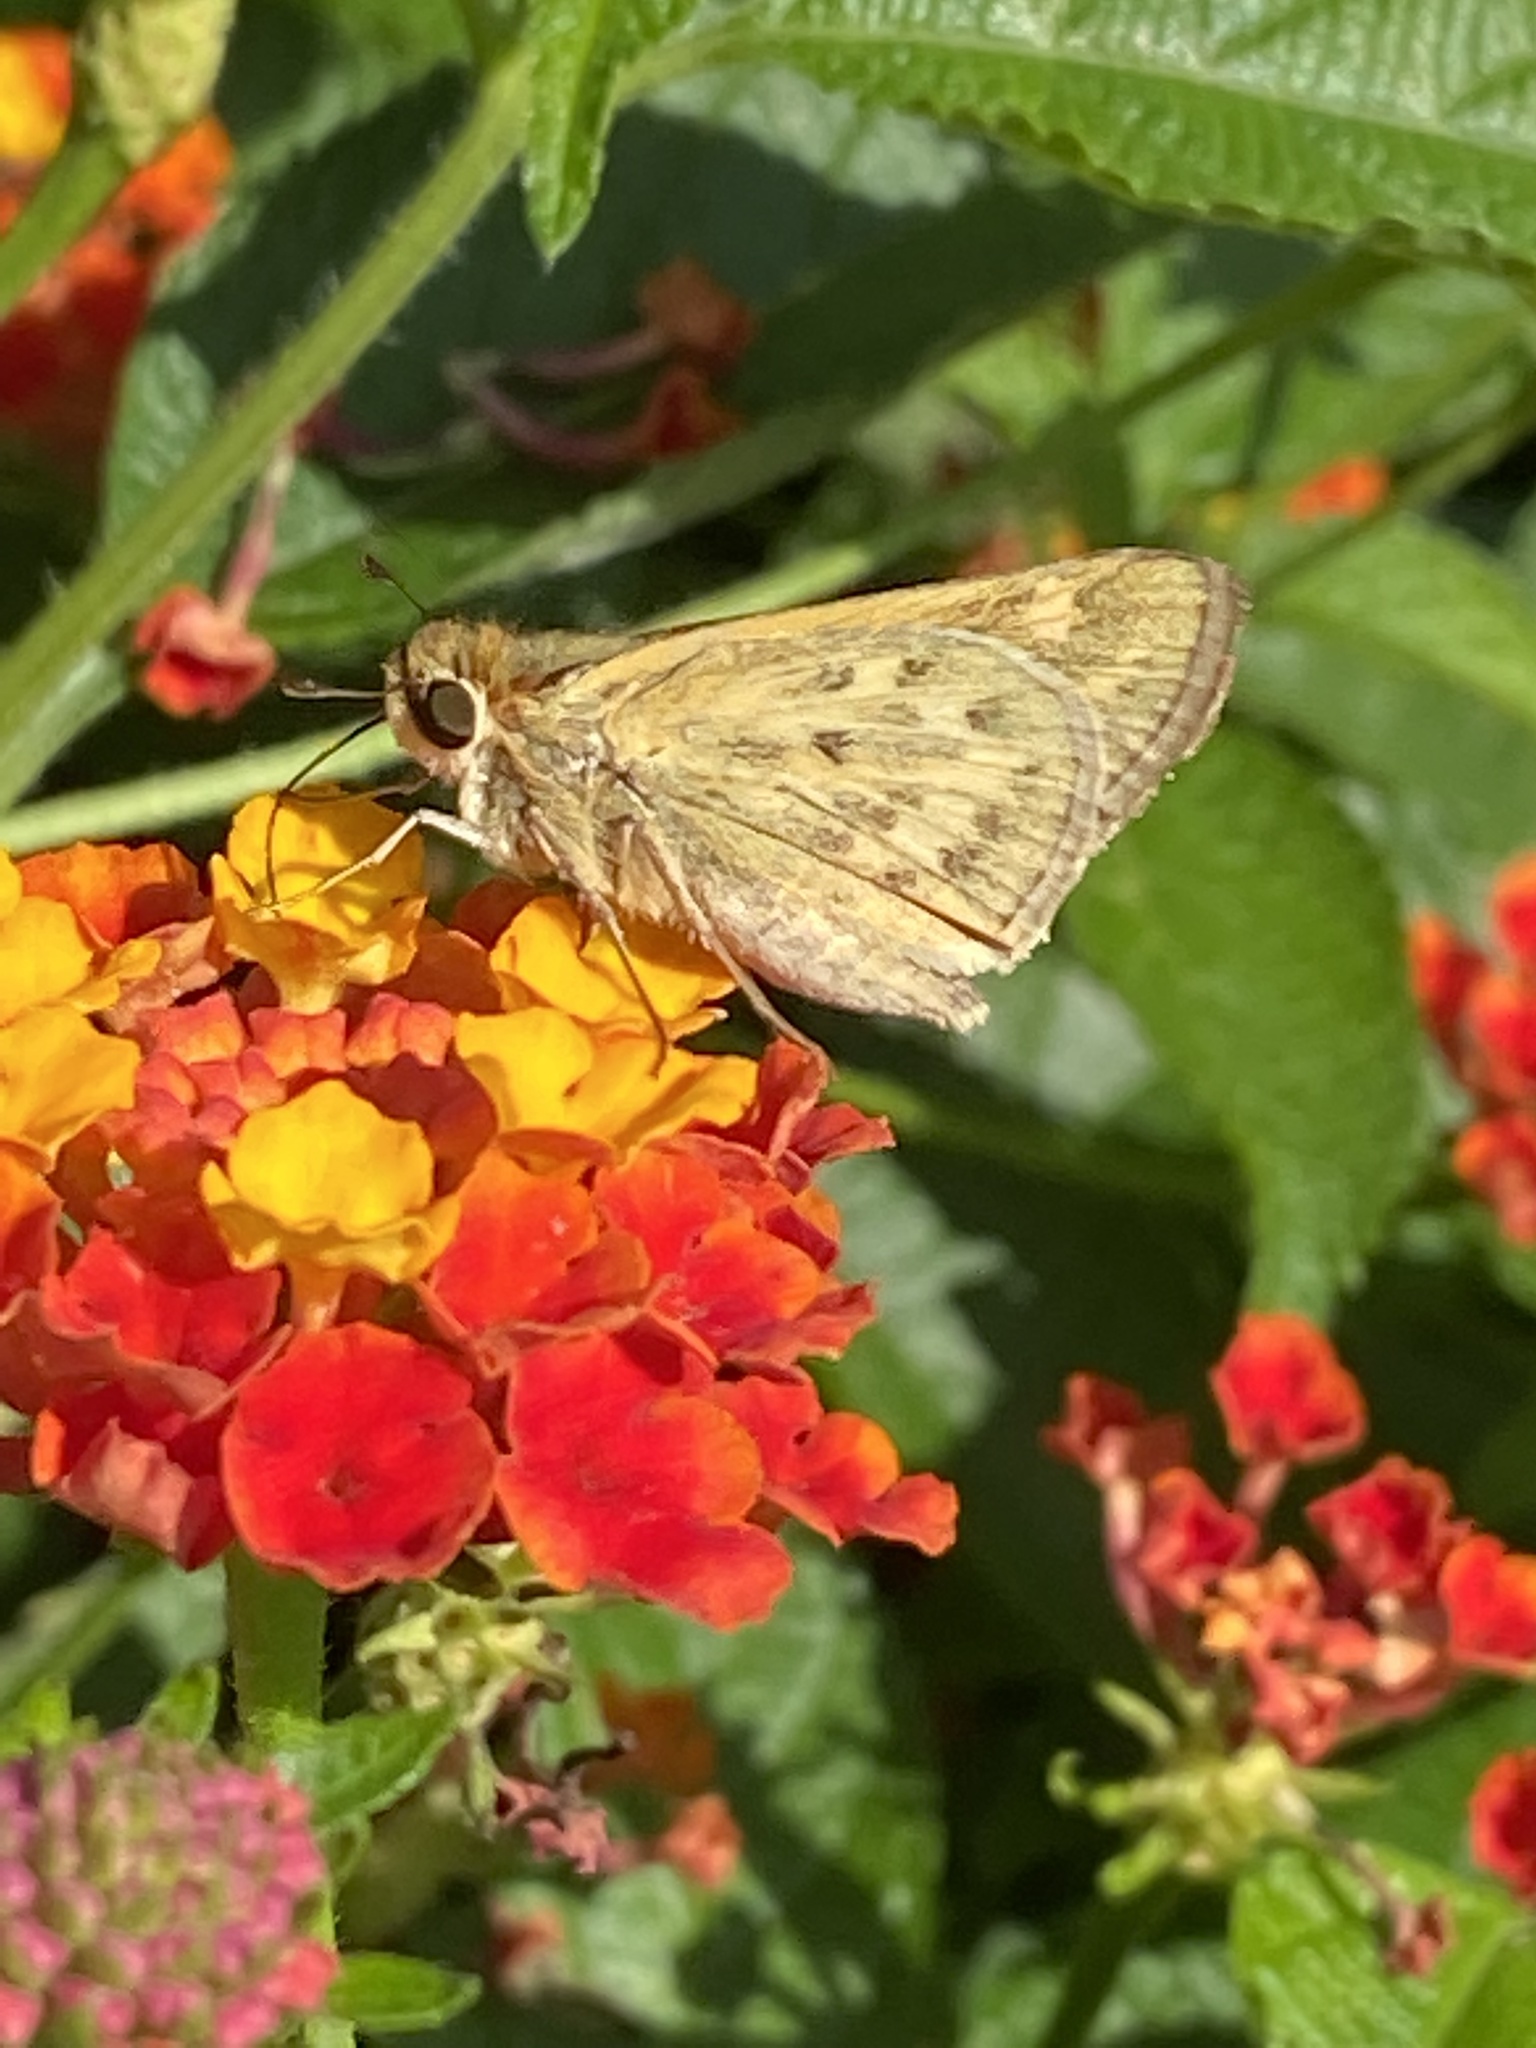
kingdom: Animalia
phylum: Arthropoda
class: Insecta
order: Lepidoptera
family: Hesperiidae
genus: Hylephila
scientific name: Hylephila phyleus
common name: Fiery skipper
